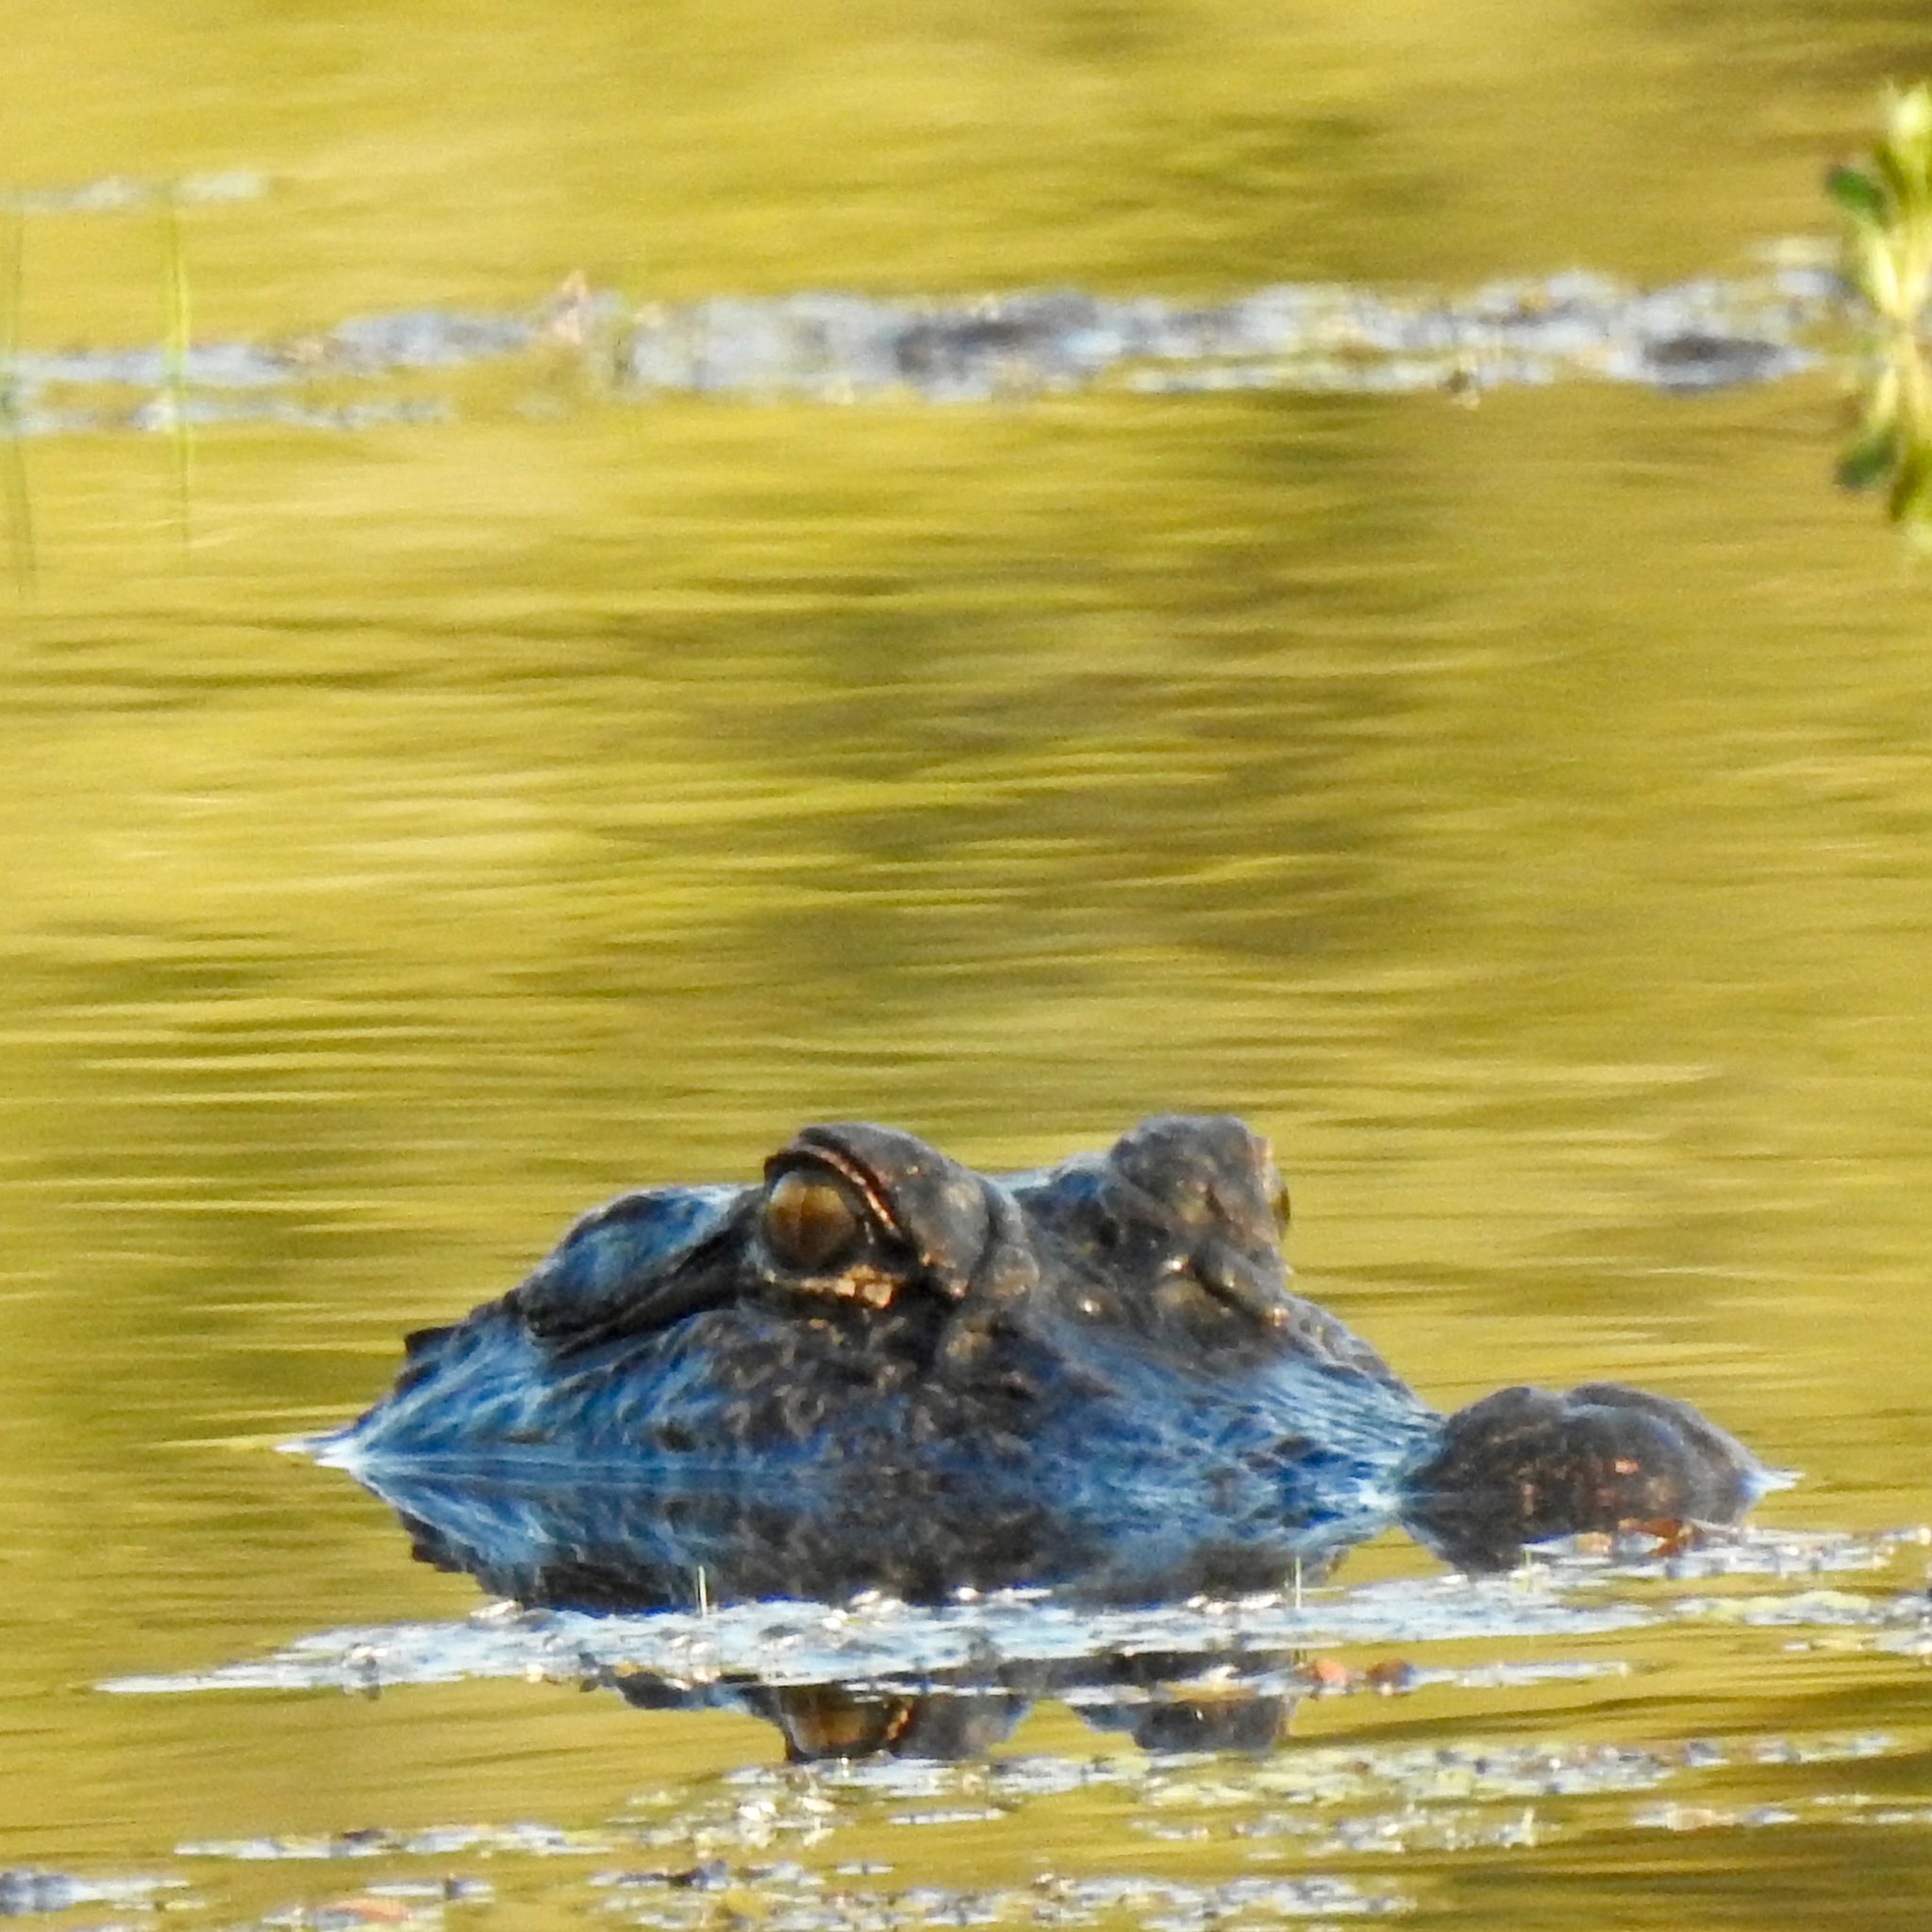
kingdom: Animalia
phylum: Chordata
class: Crocodylia
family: Alligatoridae
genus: Alligator
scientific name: Alligator mississippiensis
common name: American alligator
